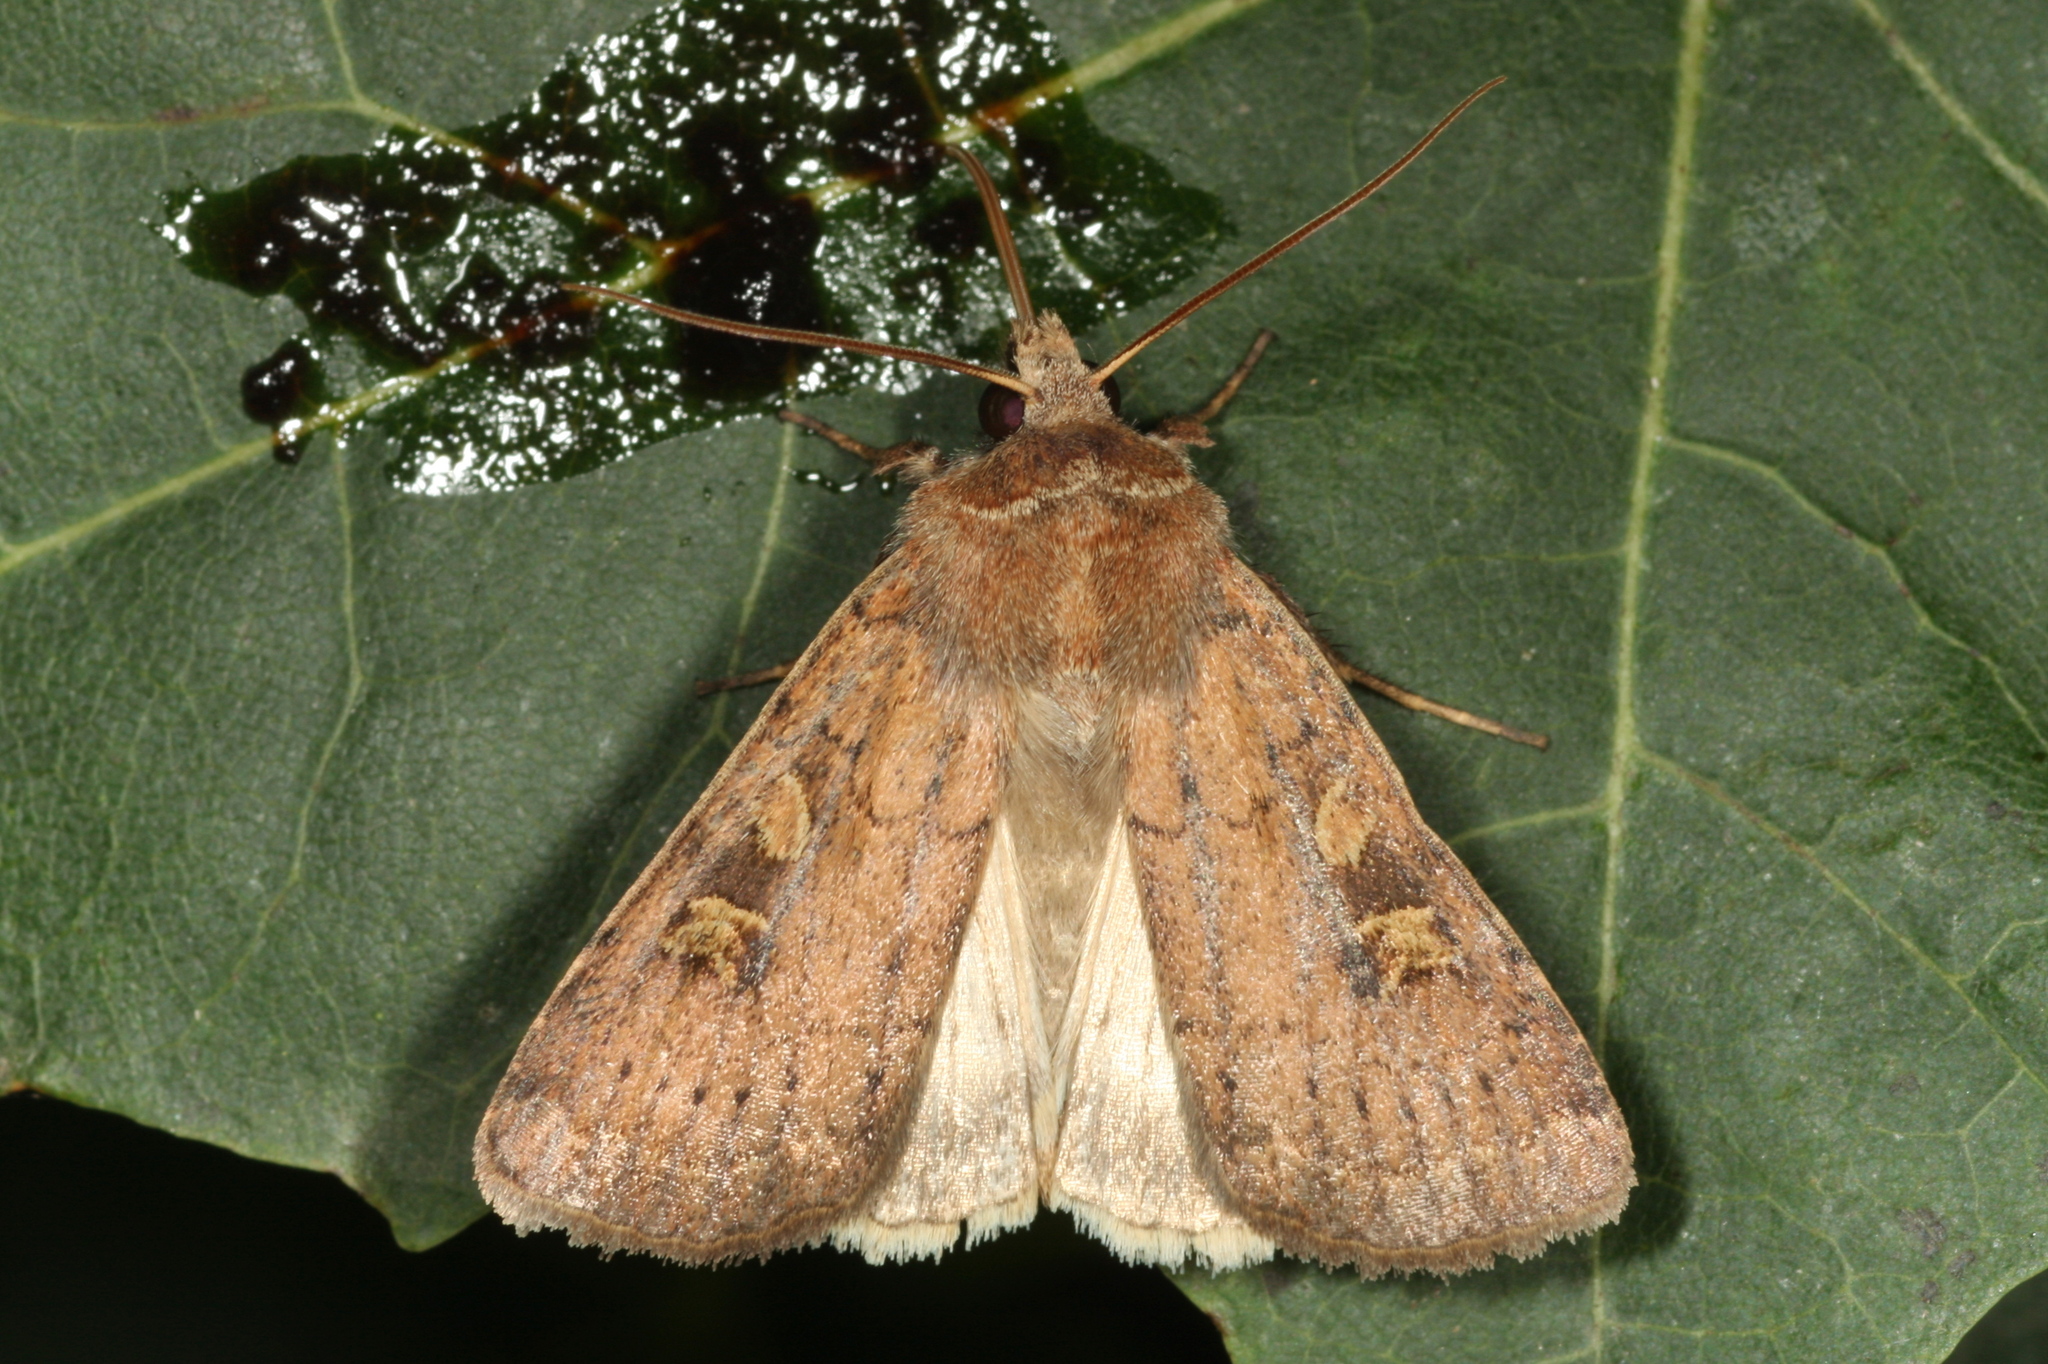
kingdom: Animalia
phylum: Arthropoda
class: Insecta
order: Lepidoptera
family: Noctuidae
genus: Xestia
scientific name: Xestia xanthographa
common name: Square-spot rustic
